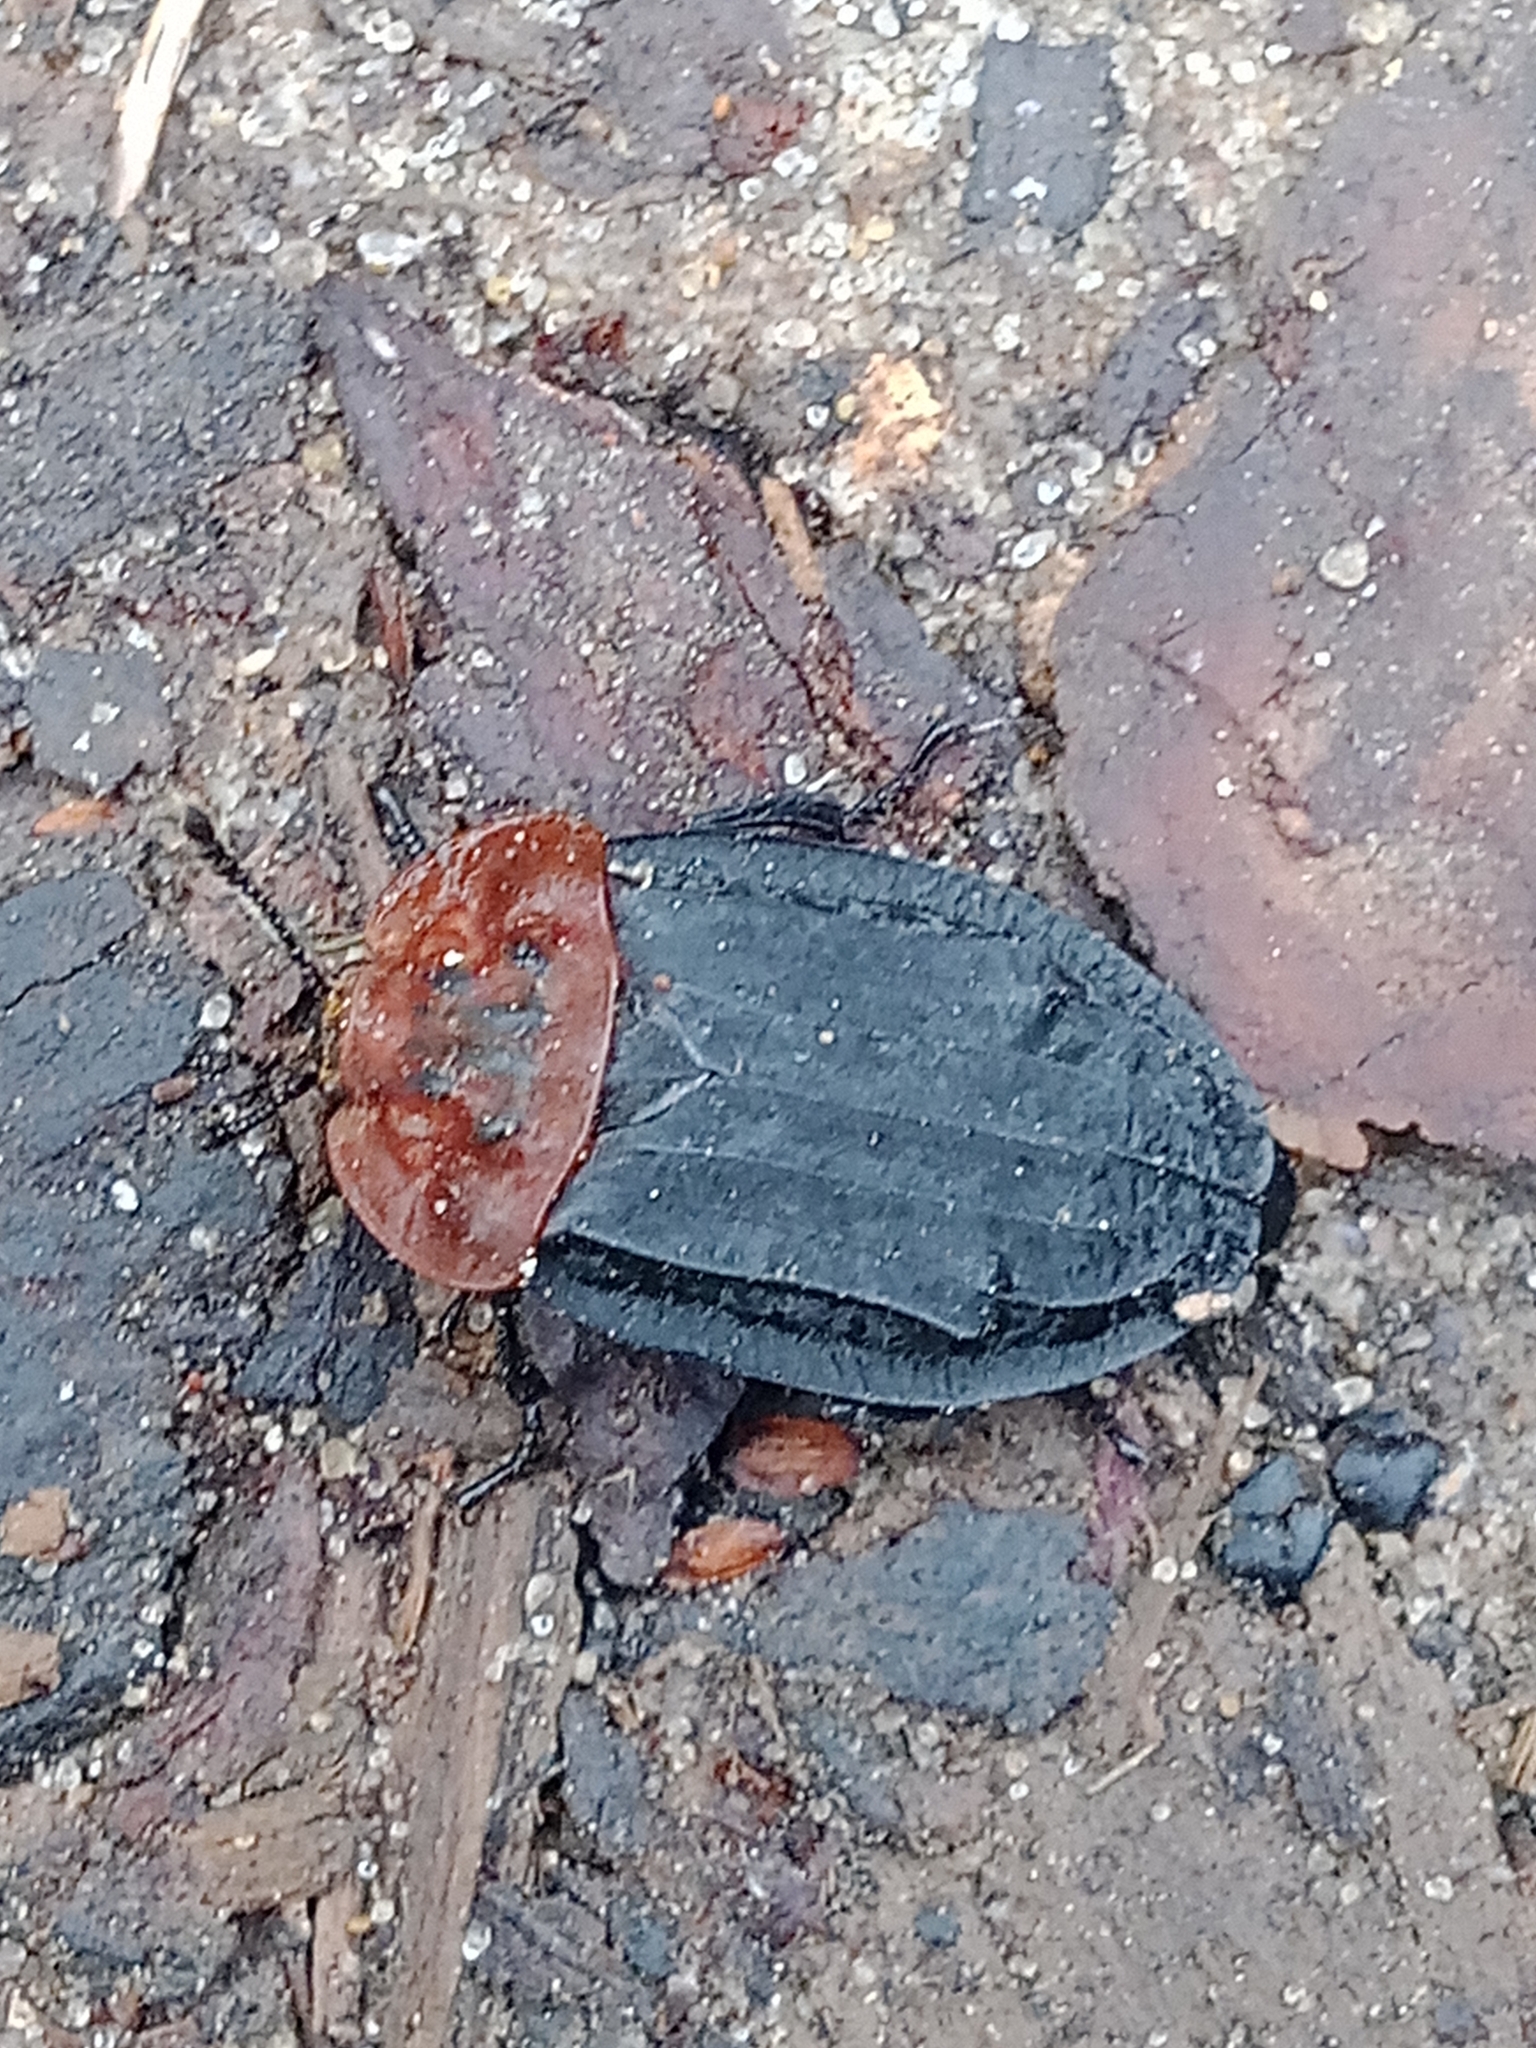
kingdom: Animalia
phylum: Arthropoda
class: Insecta
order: Coleoptera
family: Staphylinidae
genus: Oiceoptoma
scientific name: Oiceoptoma thoracicum
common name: Red-breasted carrion beetle
